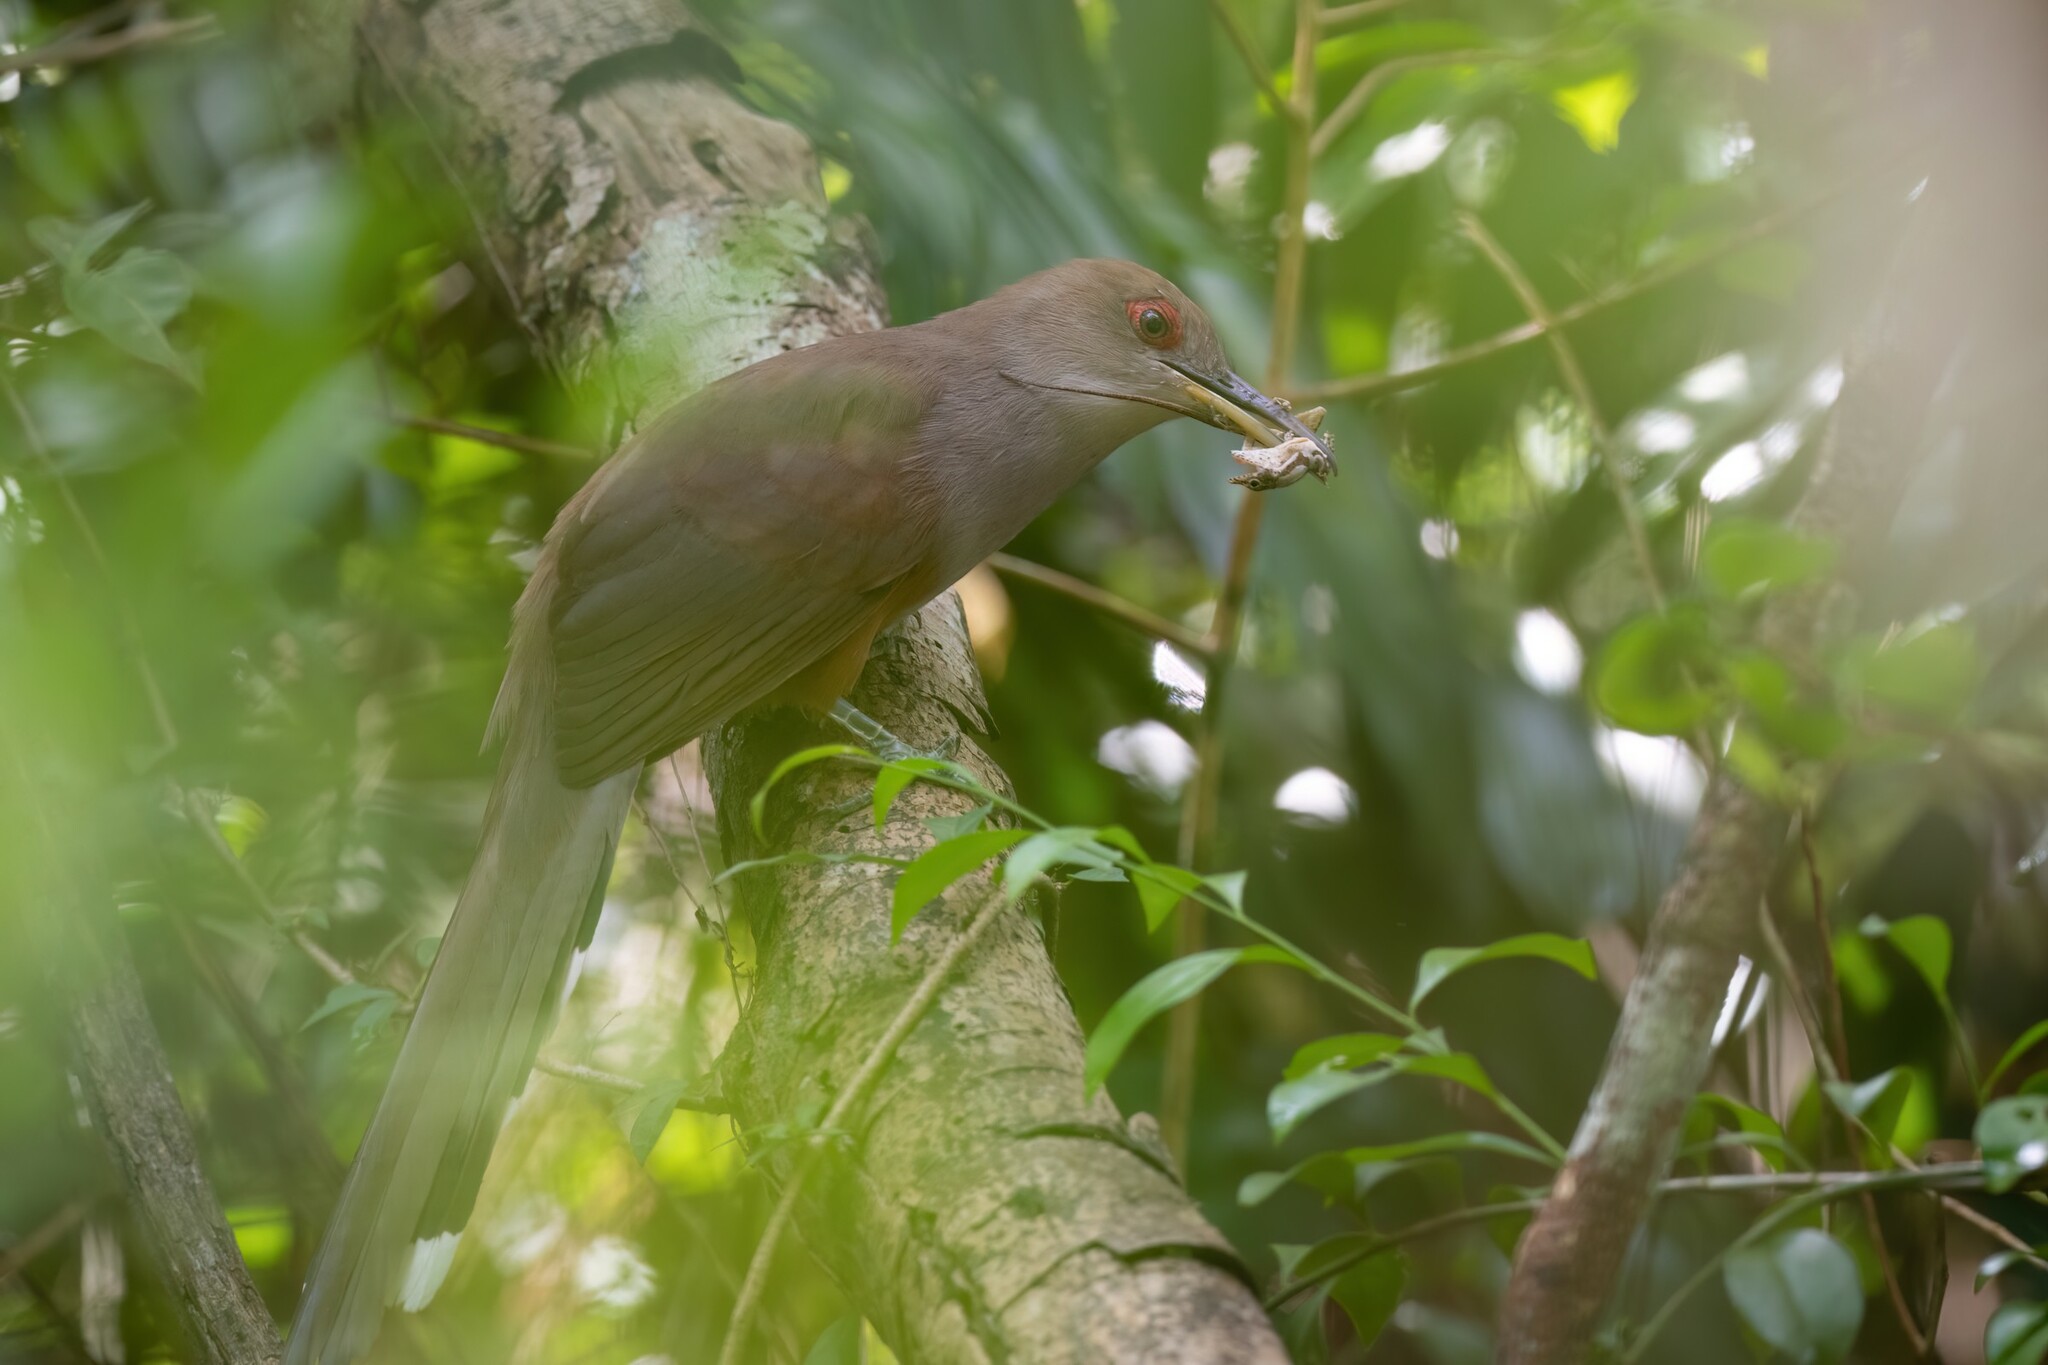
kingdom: Animalia
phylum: Chordata
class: Aves
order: Cuculiformes
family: Cuculidae
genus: Saurothera
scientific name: Saurothera vieilloti
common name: Puerto rican lizard-cuckoo
